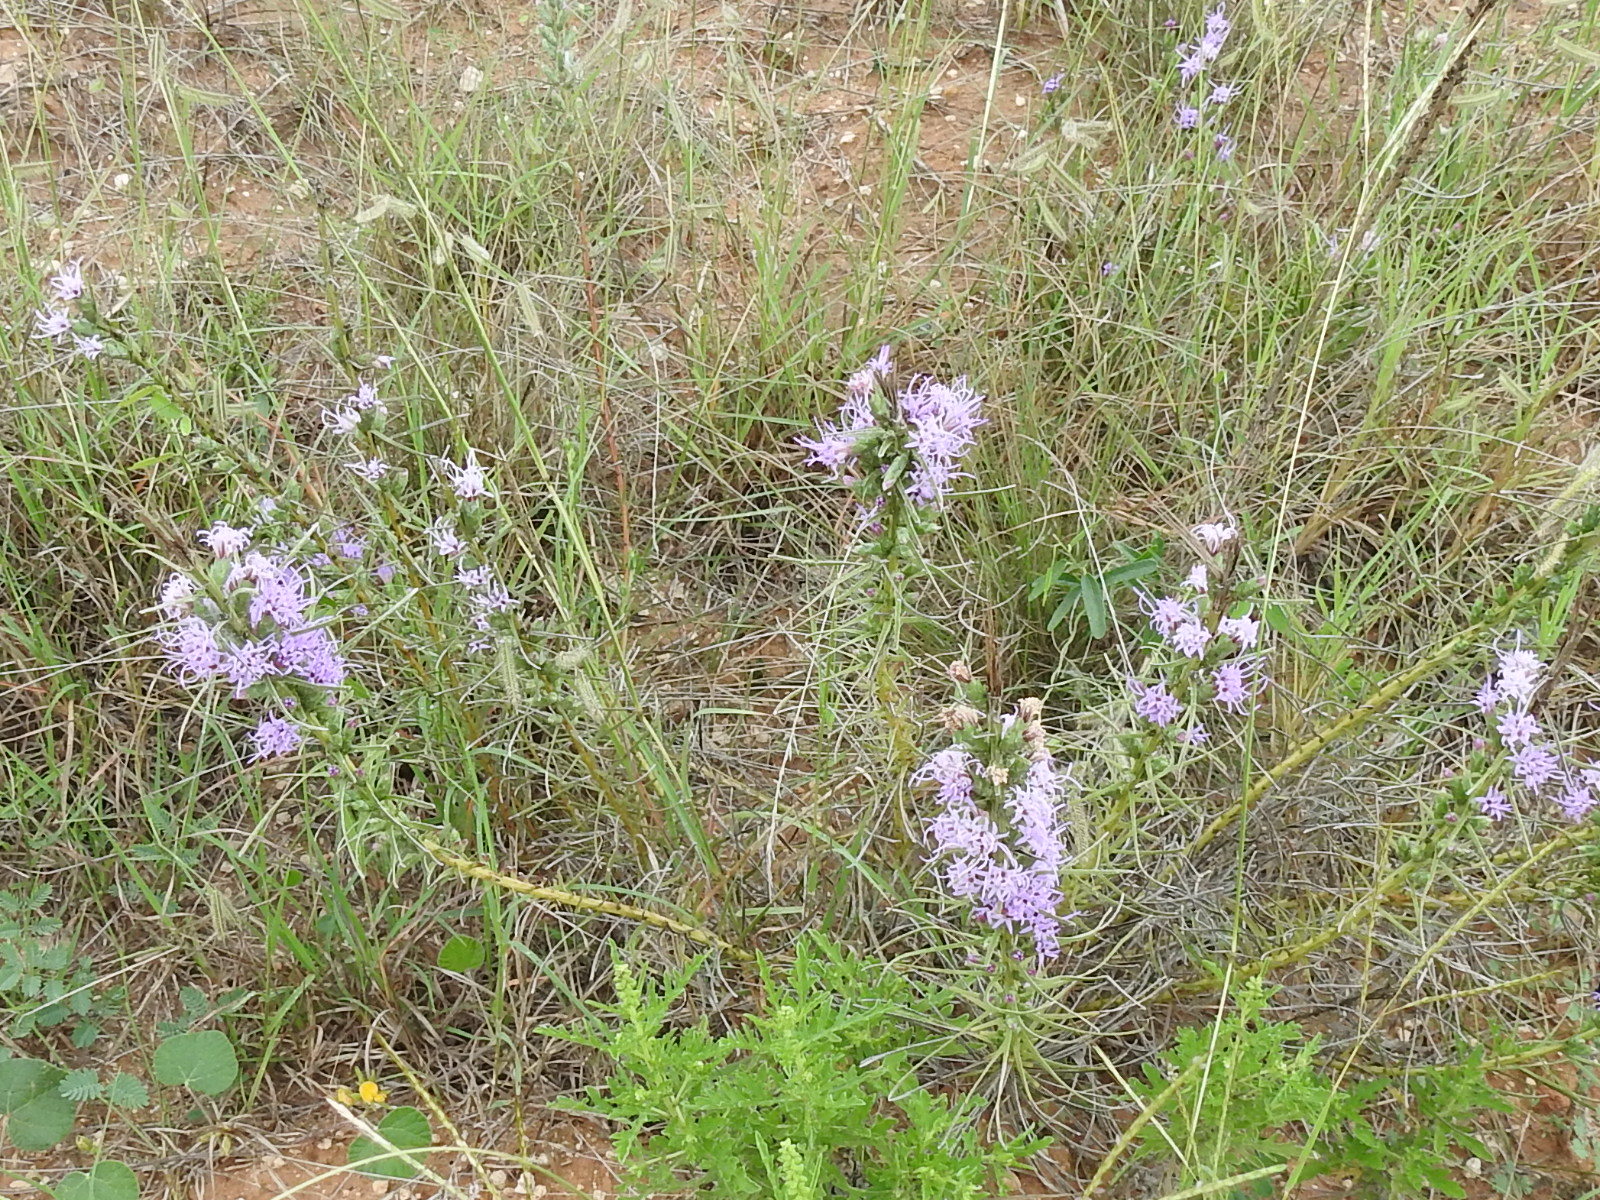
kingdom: Plantae
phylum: Tracheophyta
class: Magnoliopsida
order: Asterales
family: Asteraceae
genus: Liatris
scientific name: Liatris punctata
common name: Dotted gayfeather
